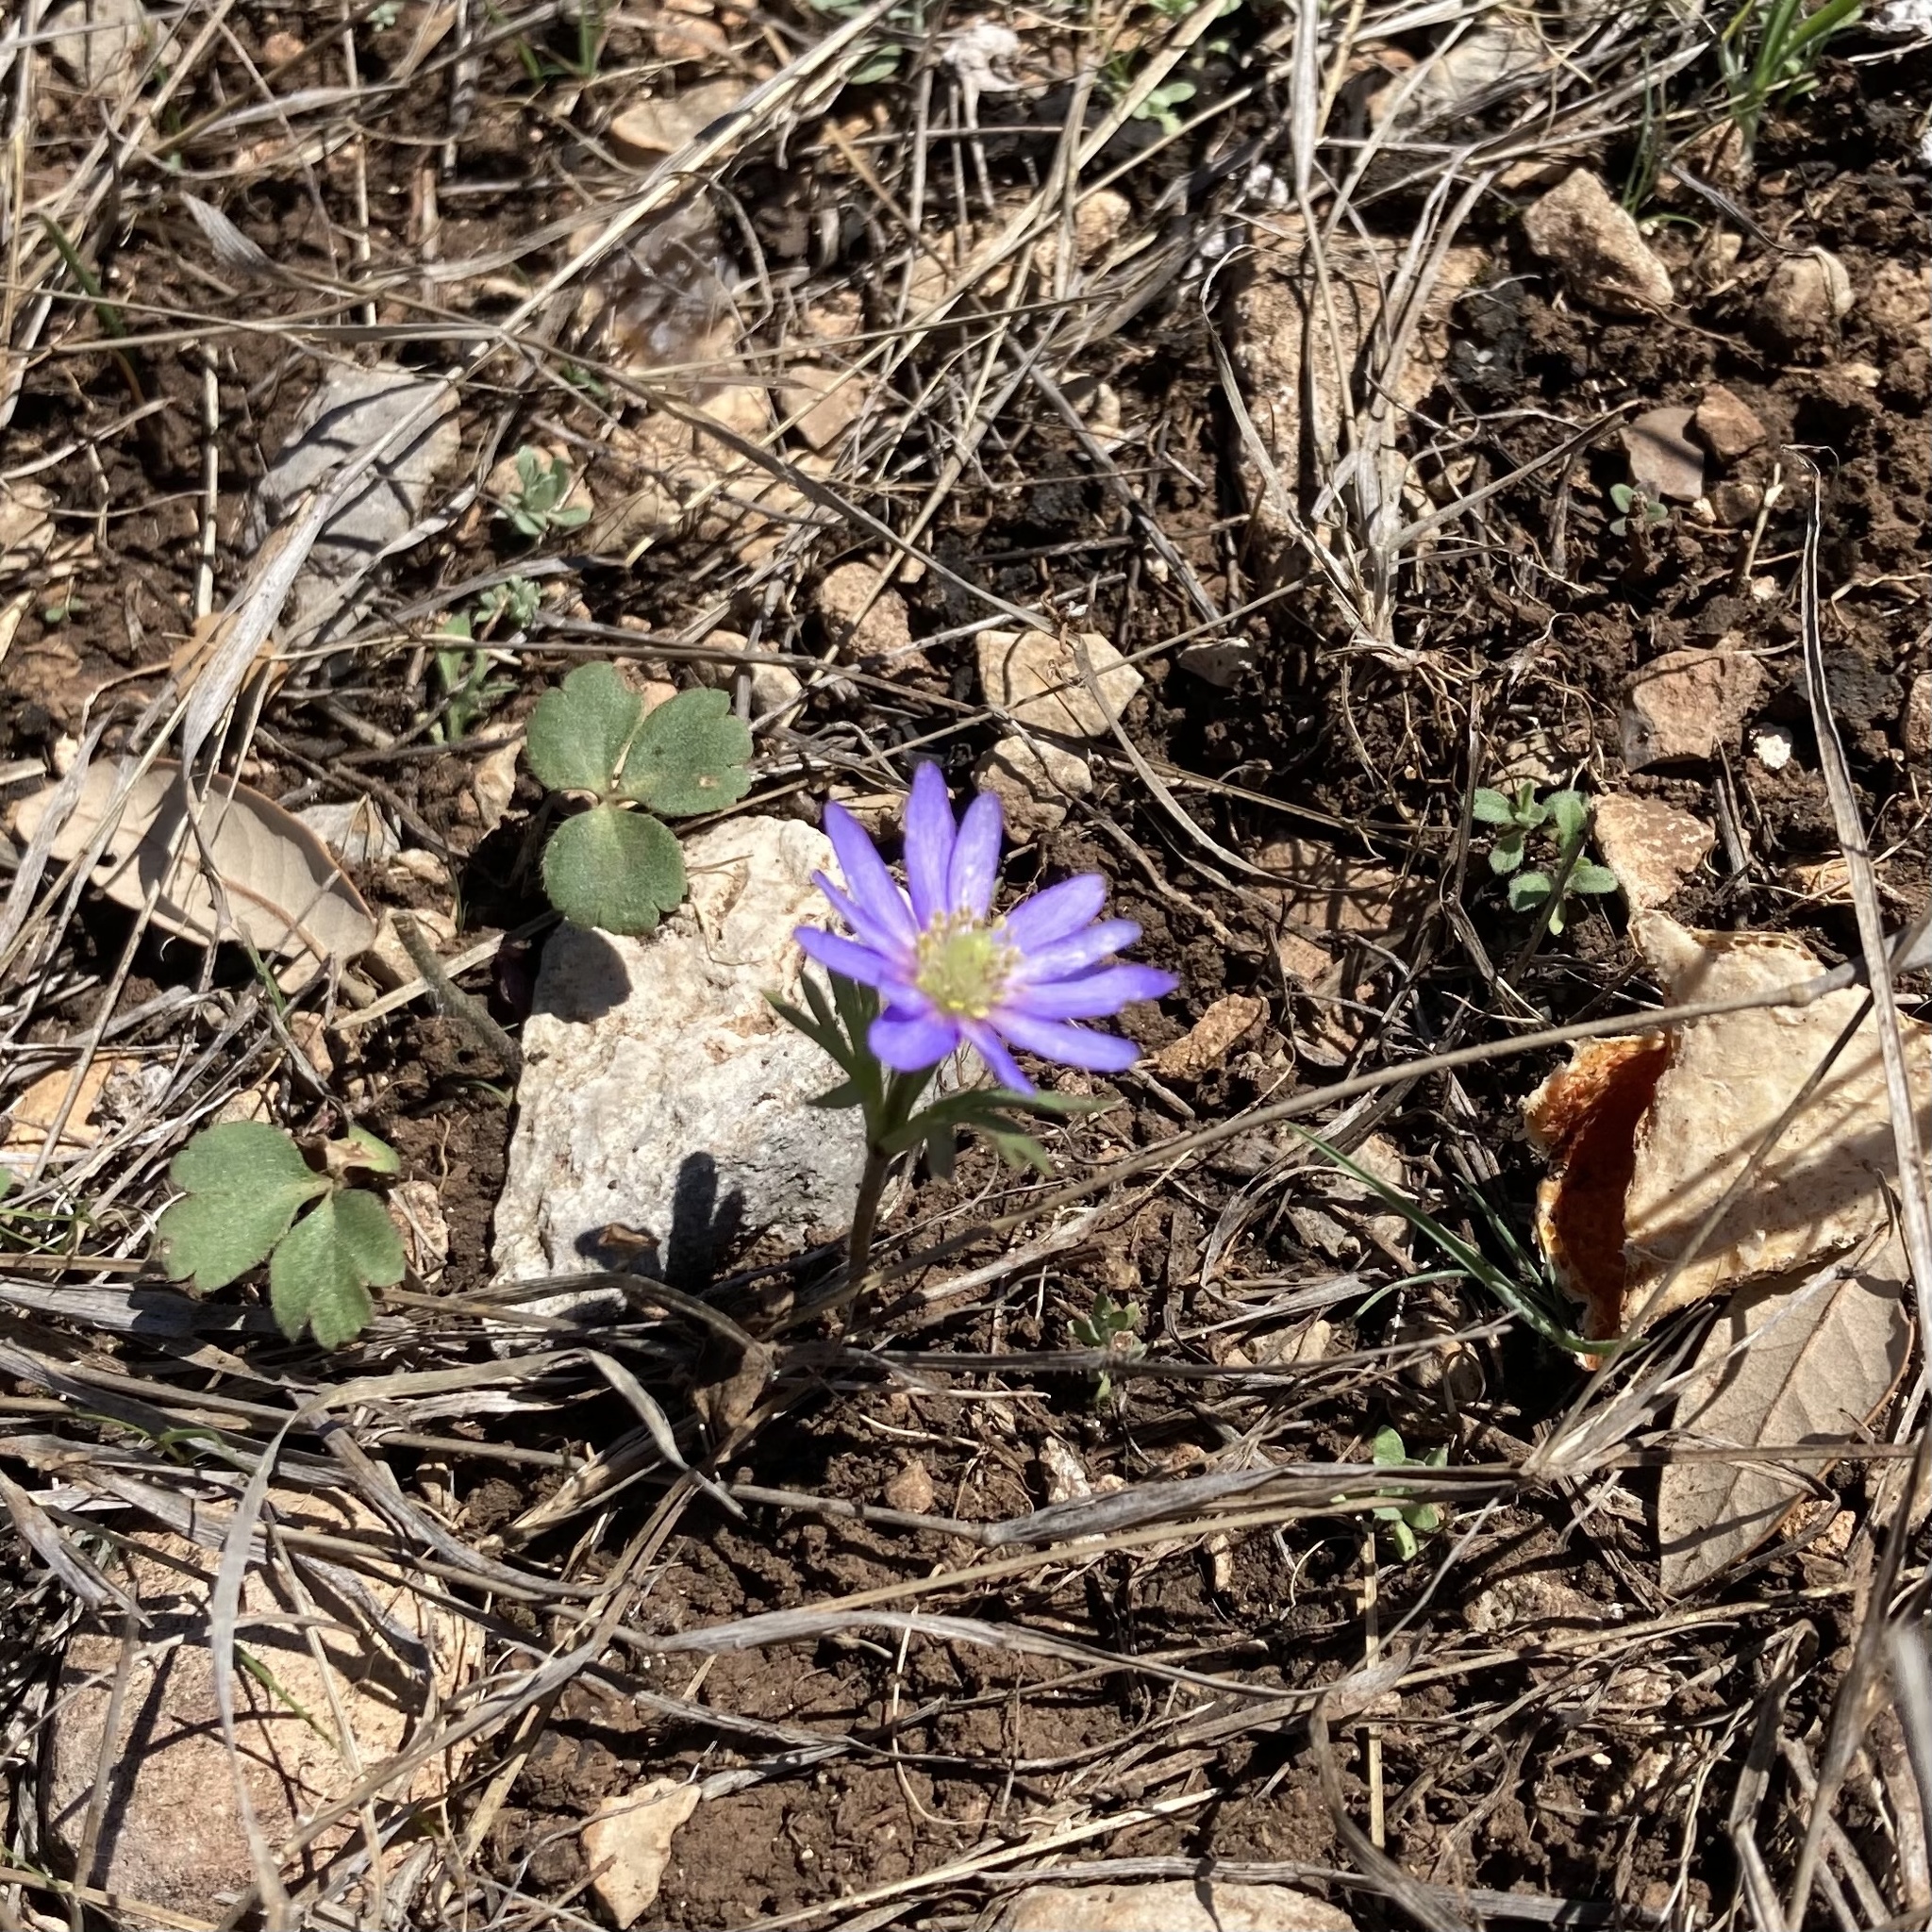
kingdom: Plantae
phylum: Tracheophyta
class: Magnoliopsida
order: Ranunculales
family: Ranunculaceae
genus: Anemone
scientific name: Anemone berlandieri
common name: Ten-petal anemone
